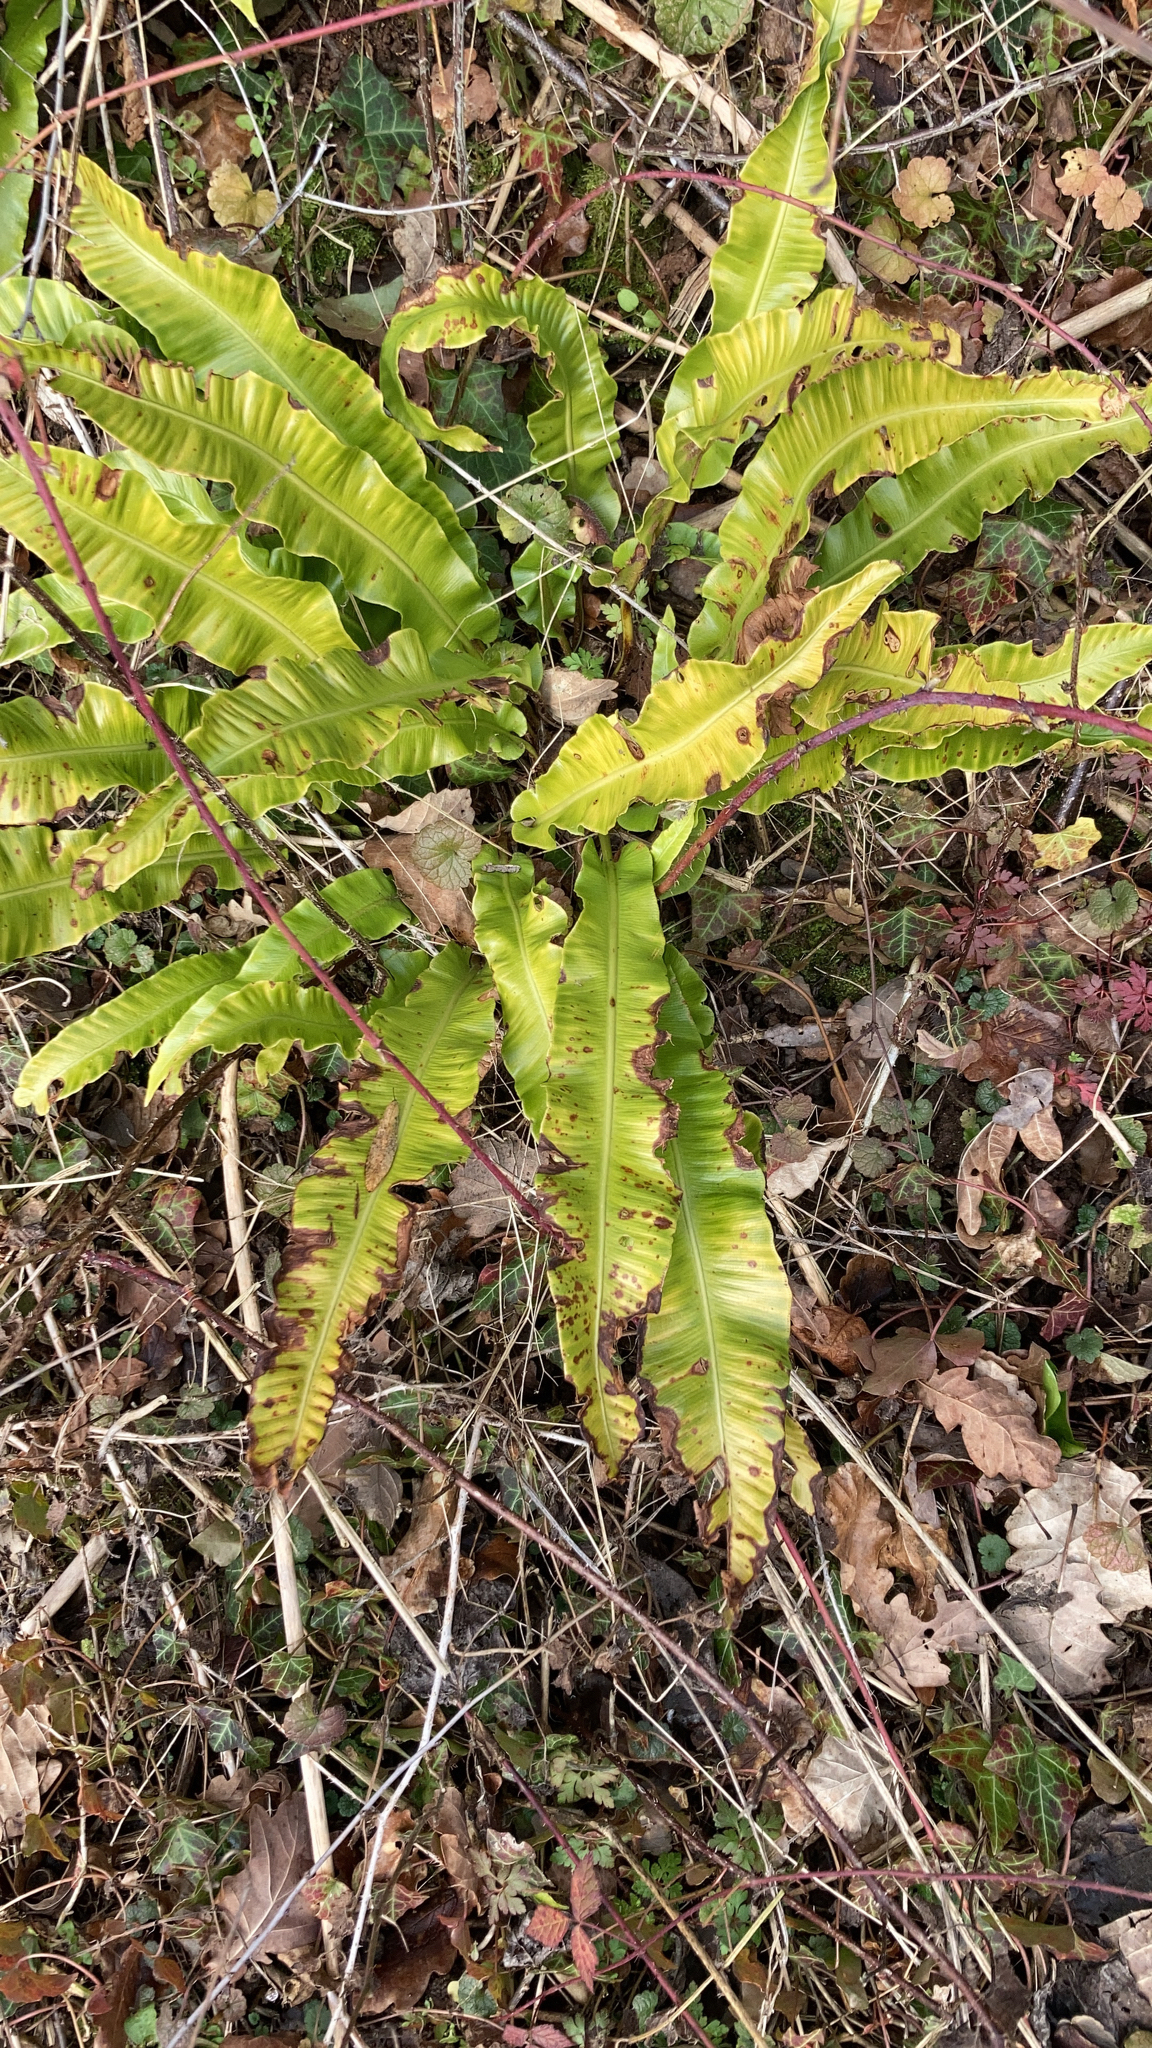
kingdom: Plantae
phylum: Tracheophyta
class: Polypodiopsida
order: Polypodiales
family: Aspleniaceae
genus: Asplenium
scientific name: Asplenium scolopendrium
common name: Hart's-tongue fern
